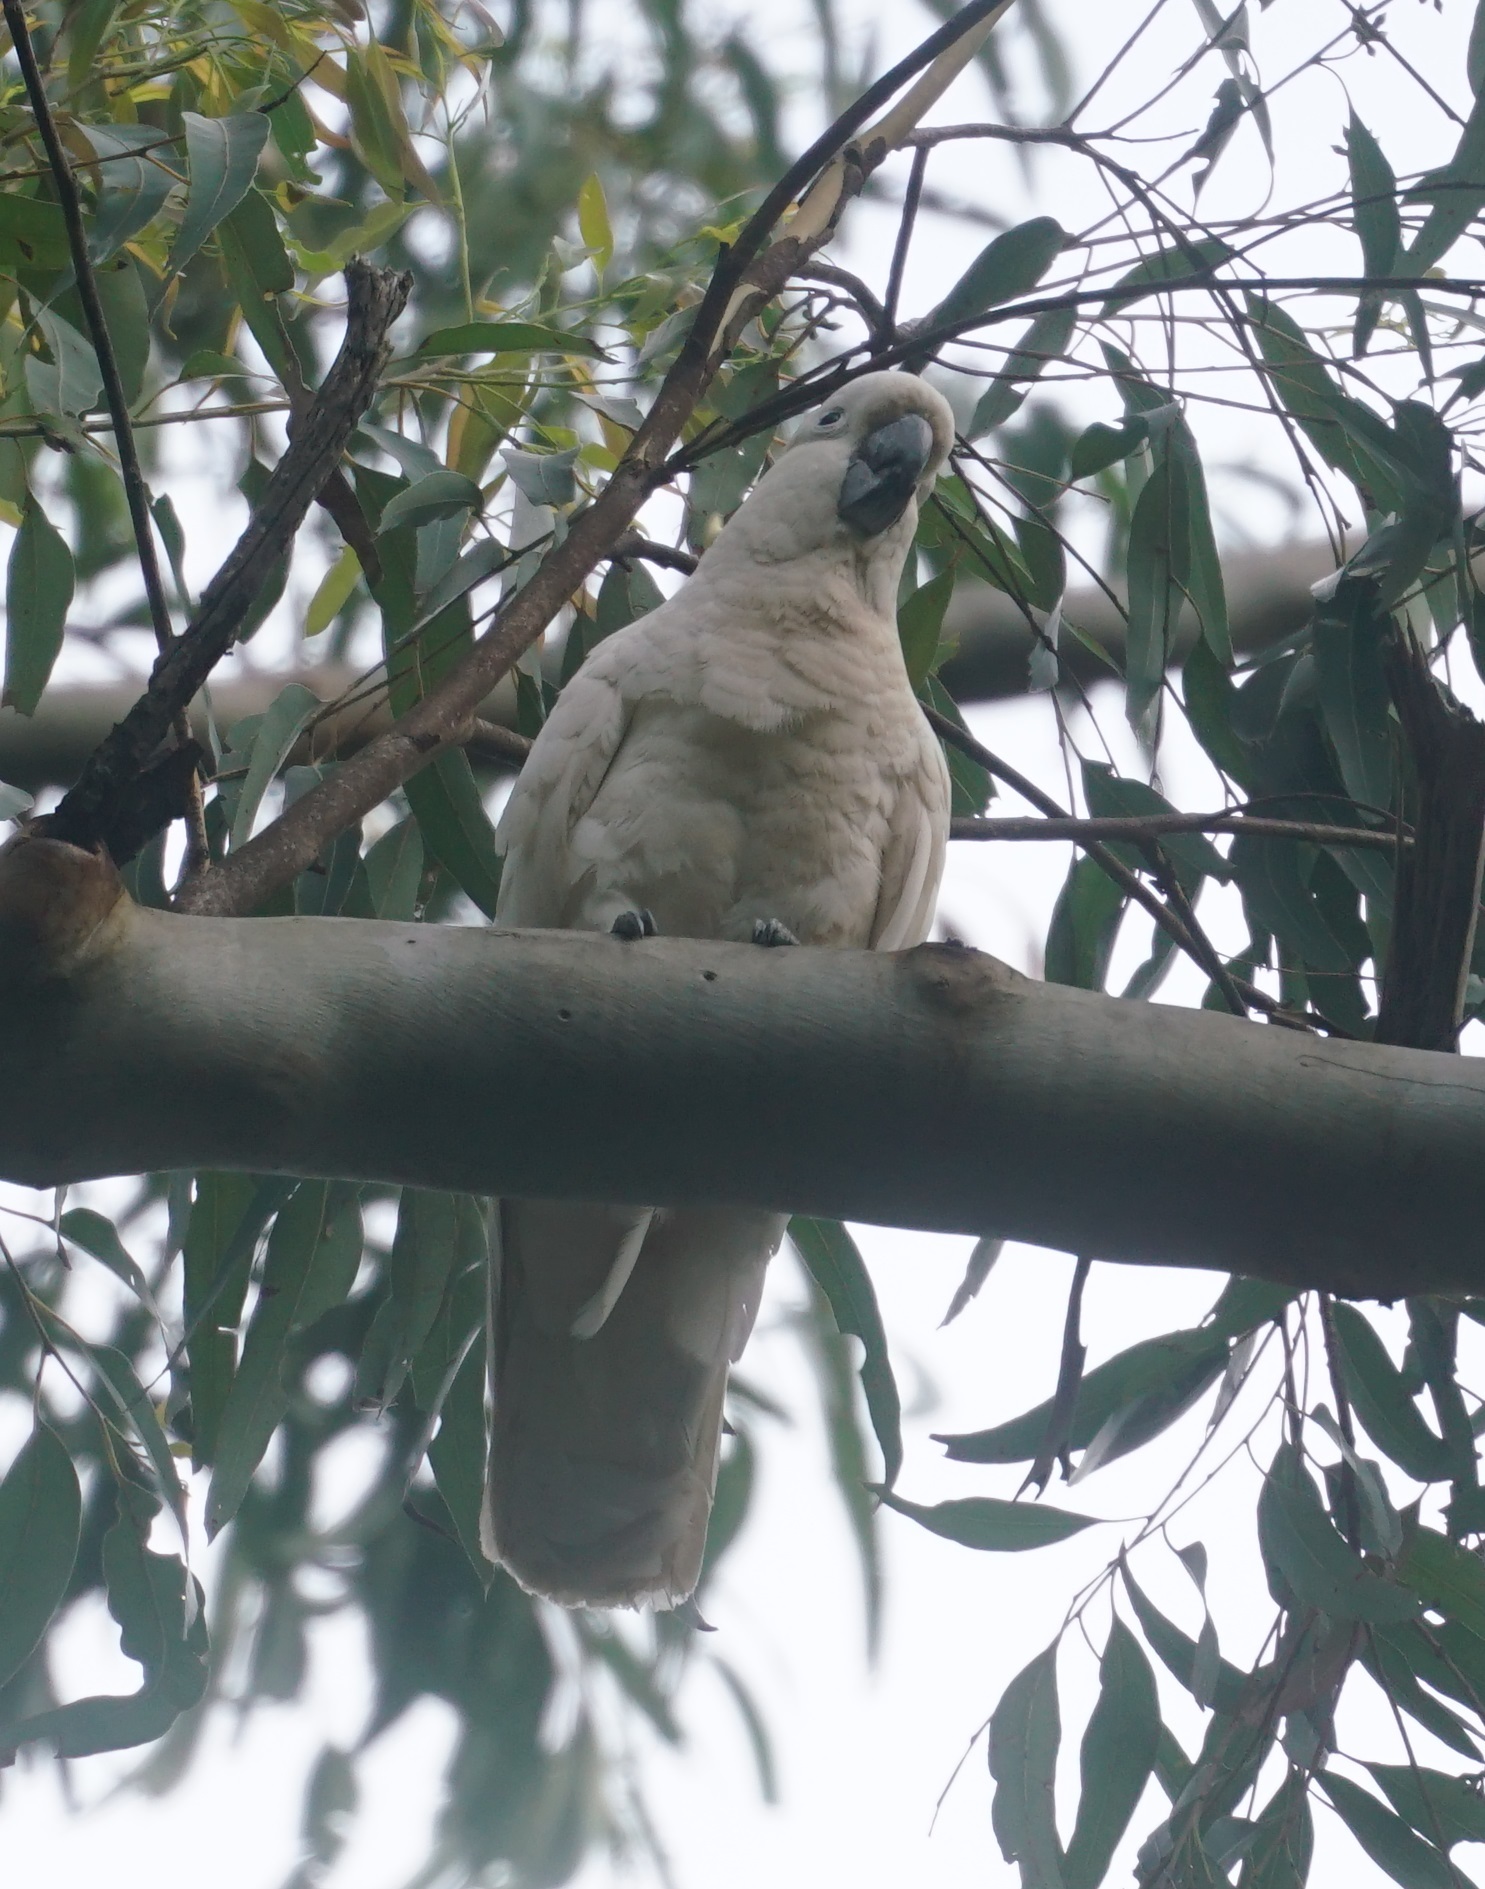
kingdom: Animalia
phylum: Chordata
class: Aves
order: Psittaciformes
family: Psittacidae
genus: Cacatua
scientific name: Cacatua galerita
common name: Sulphur-crested cockatoo
